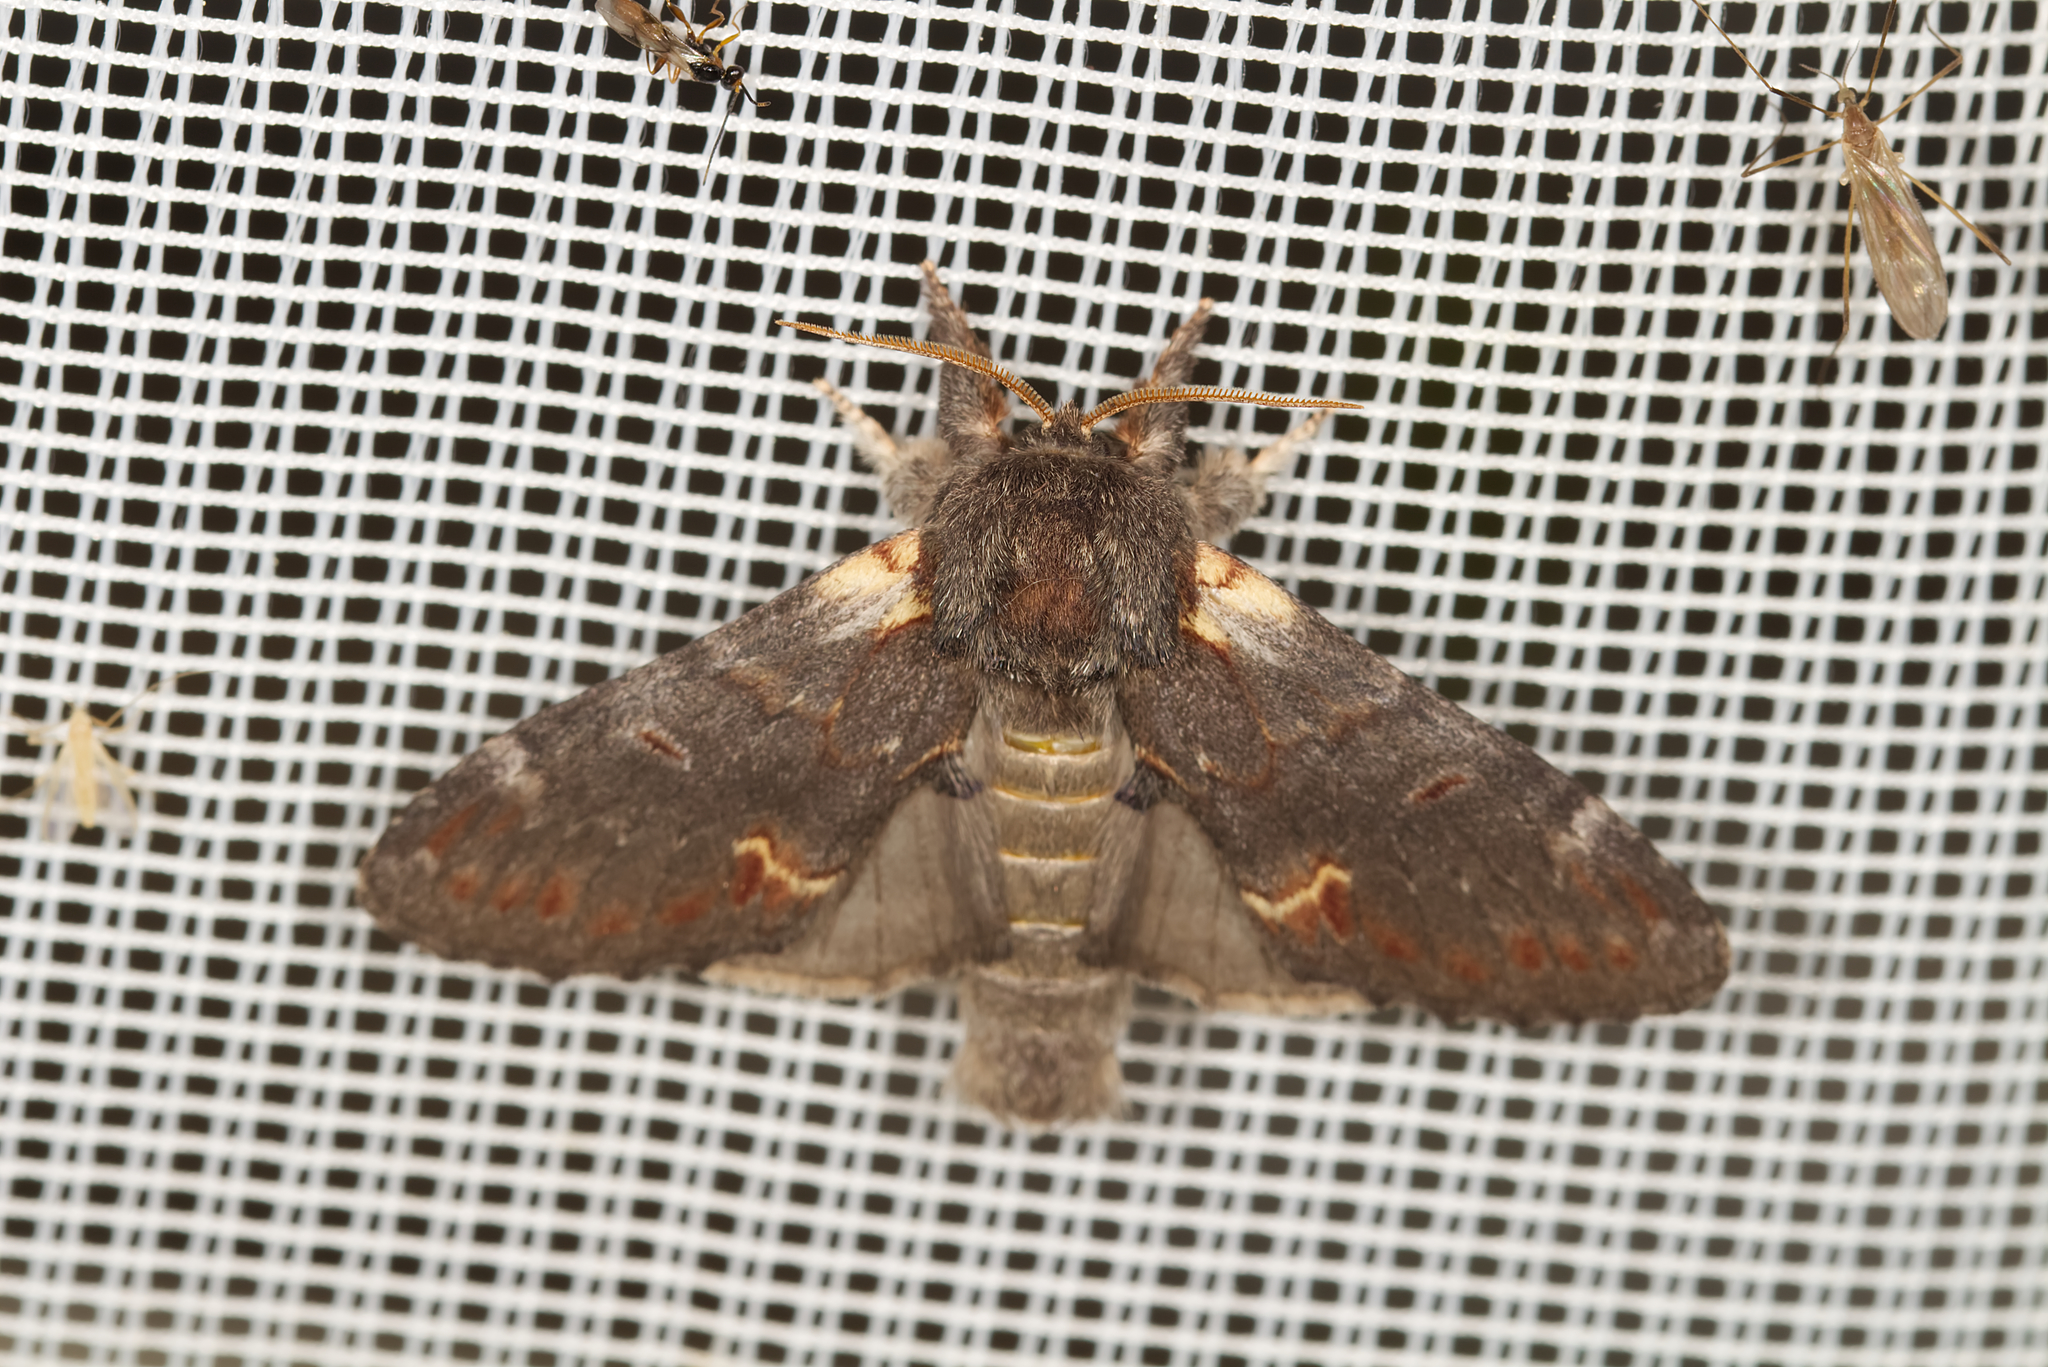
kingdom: Animalia
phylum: Arthropoda
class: Insecta
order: Lepidoptera
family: Notodontidae
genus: Notodonta
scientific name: Notodonta dromedarius
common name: Iron prominent
